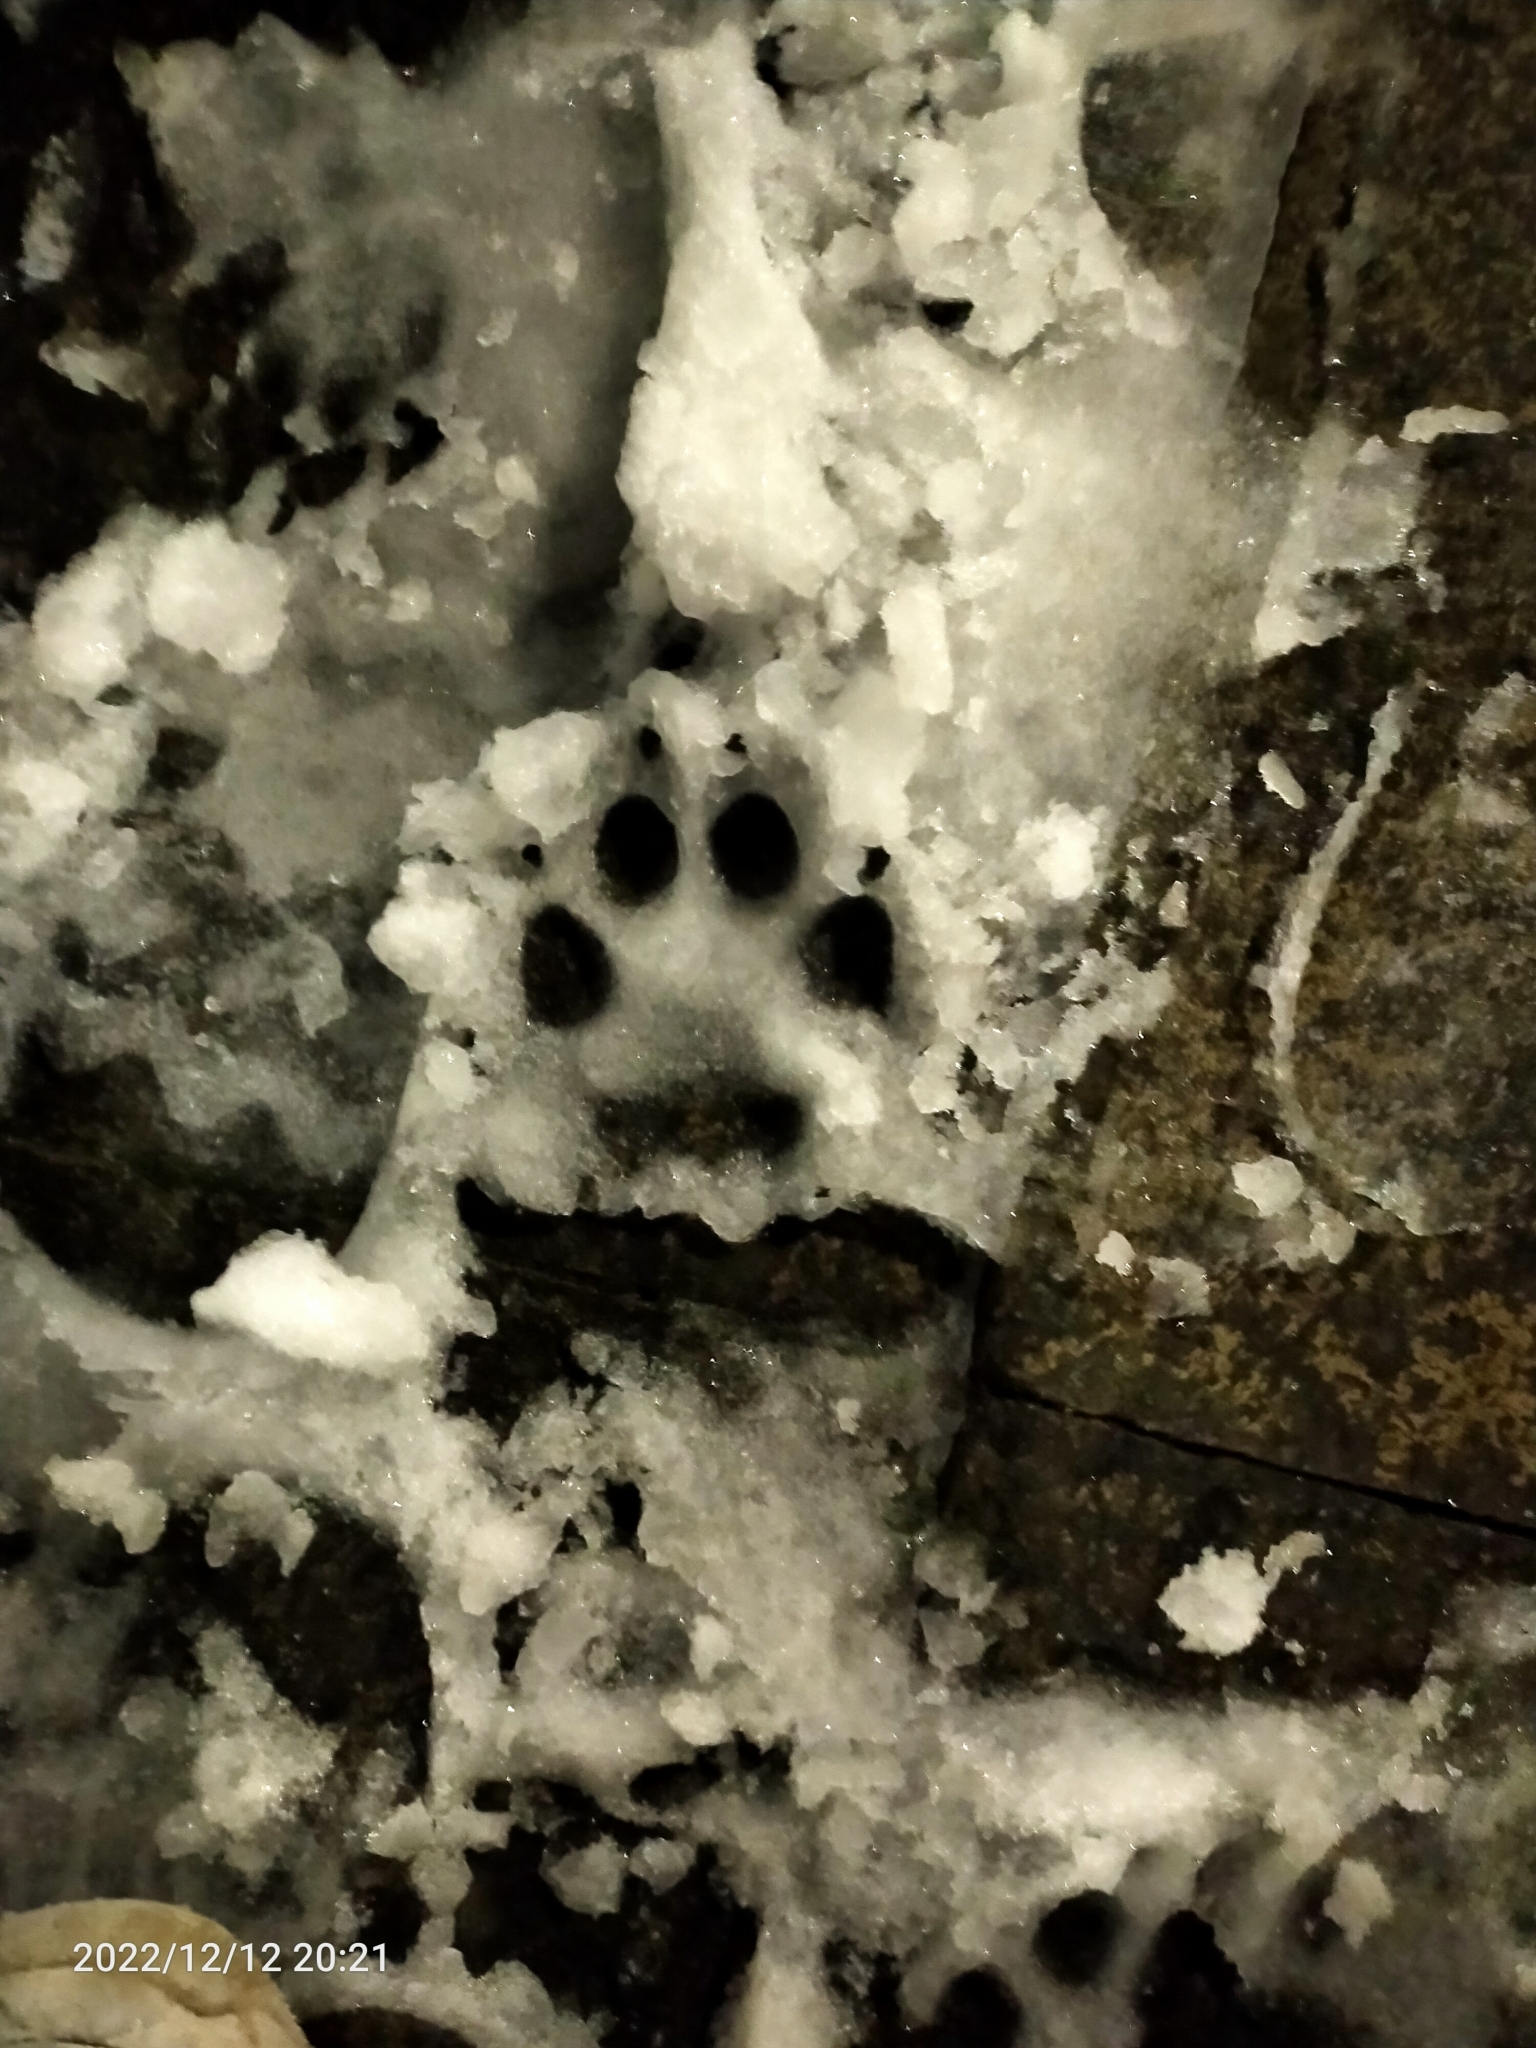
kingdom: Animalia
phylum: Chordata
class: Mammalia
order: Carnivora
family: Felidae
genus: Felis
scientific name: Felis catus
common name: Domestic cat
